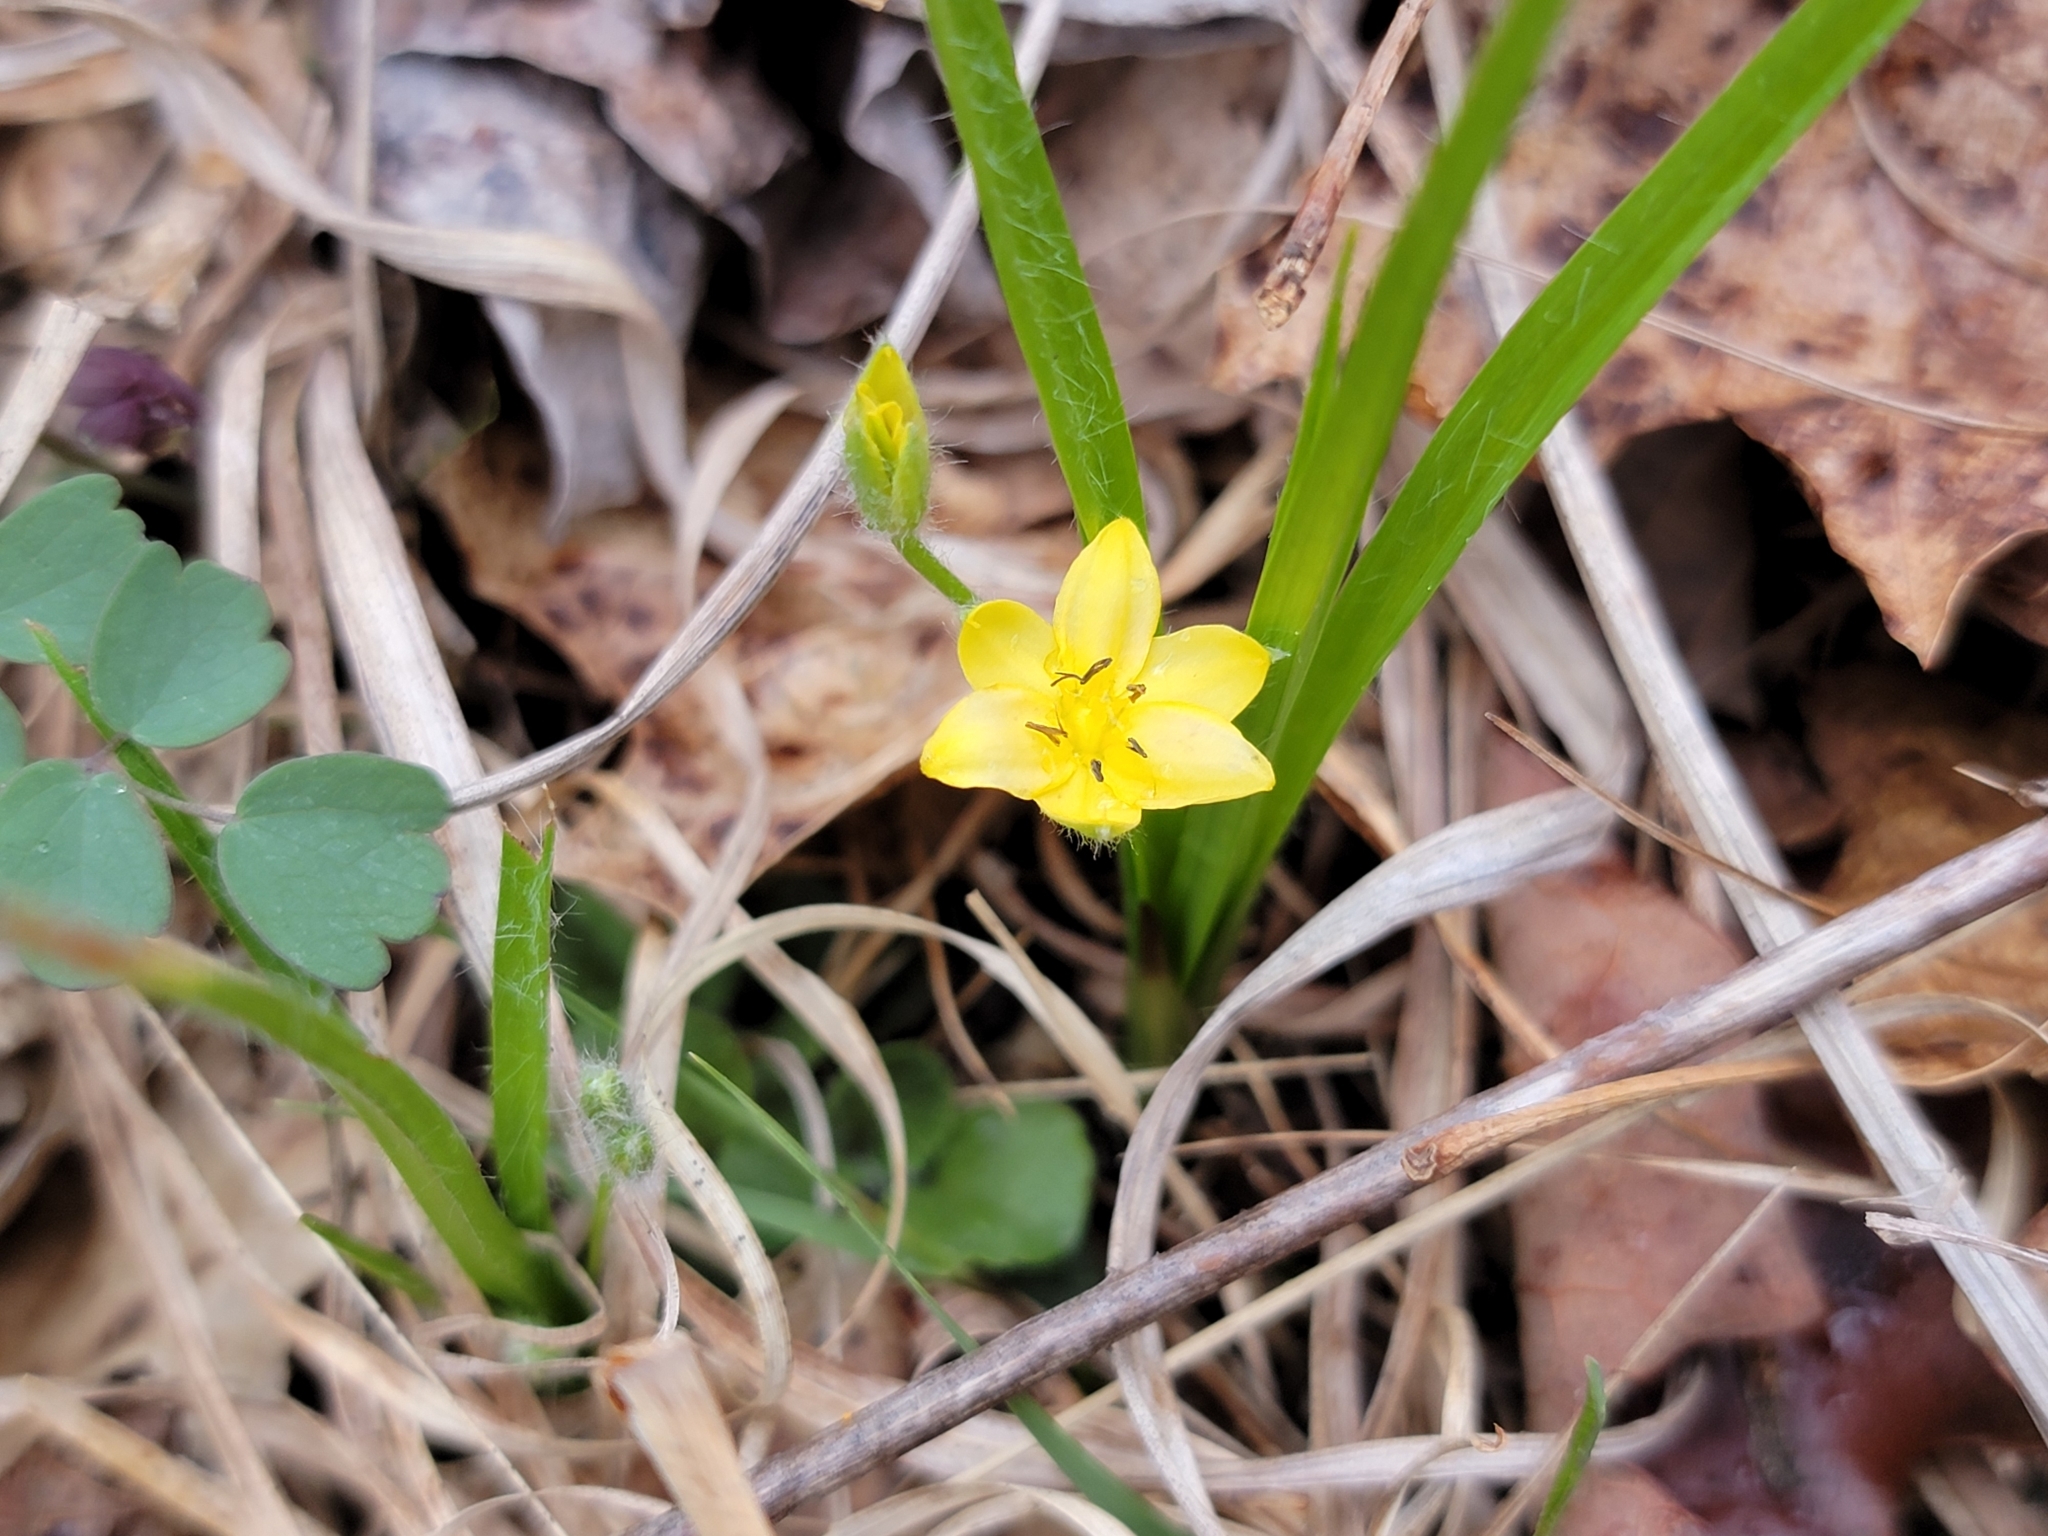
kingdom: Plantae
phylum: Tracheophyta
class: Liliopsida
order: Asparagales
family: Hypoxidaceae
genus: Hypoxis
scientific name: Hypoxis hirsuta
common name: Common goldstar
